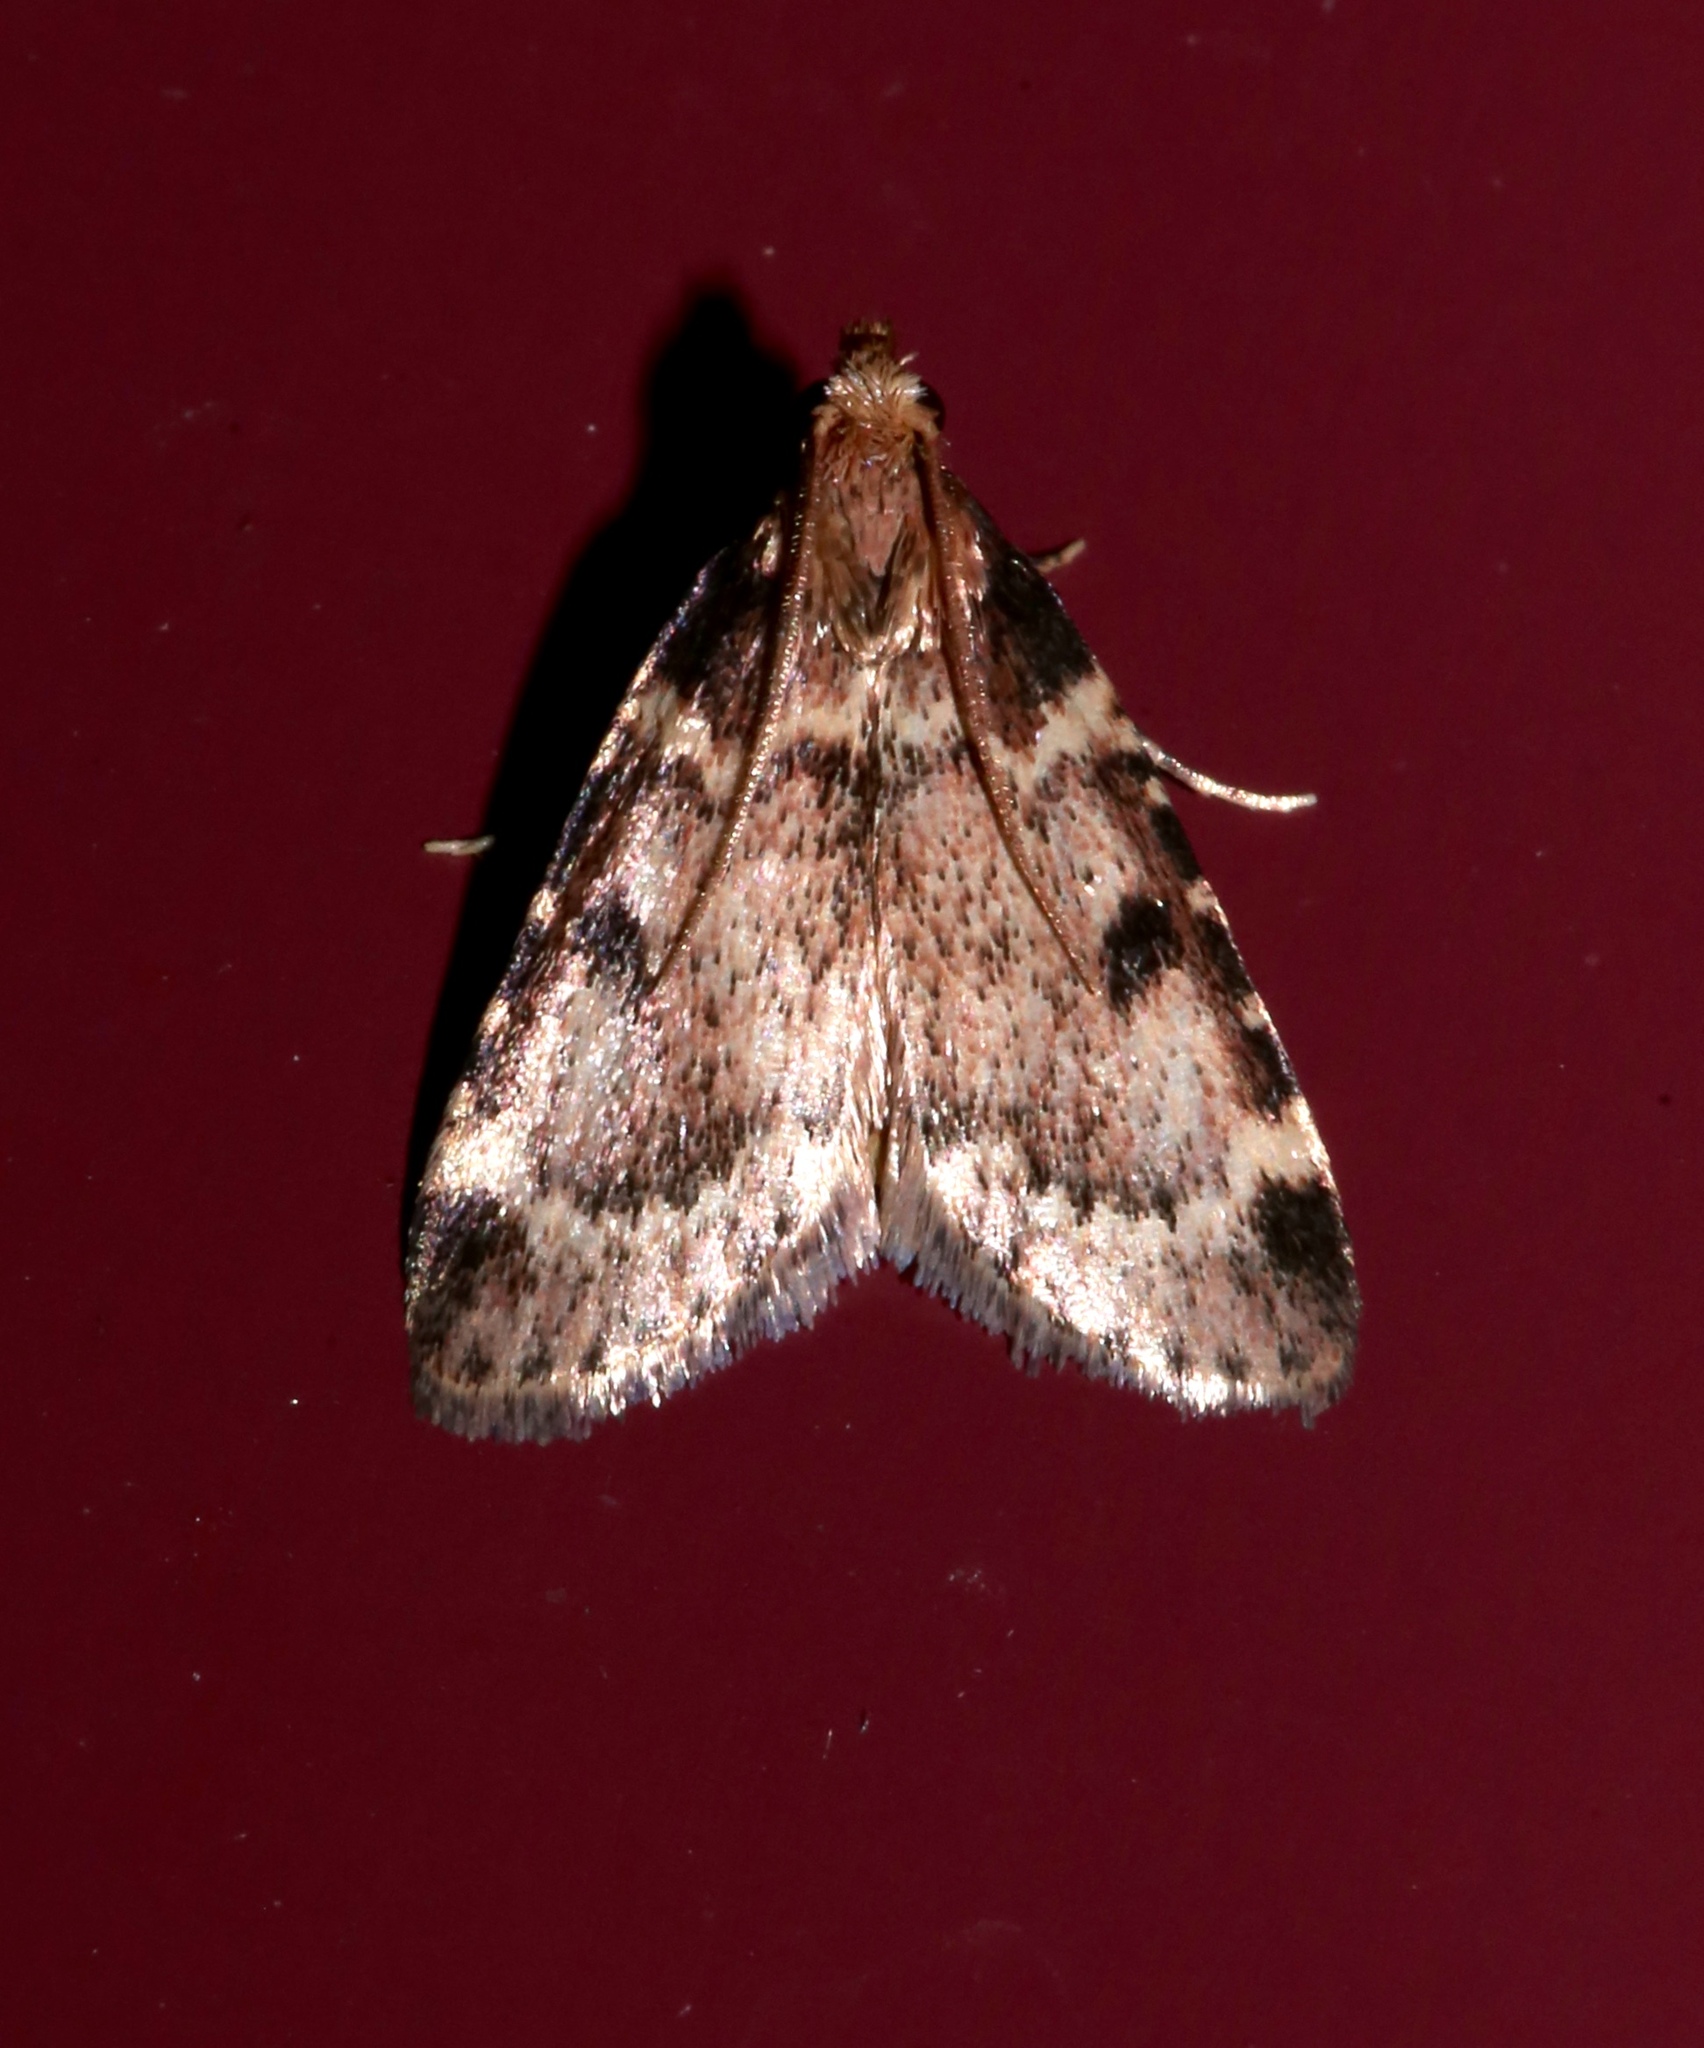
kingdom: Animalia
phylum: Arthropoda
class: Insecta
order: Lepidoptera
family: Pyralidae
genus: Aglossa
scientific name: Aglossa costiferalis
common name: Calico pyralid moth
